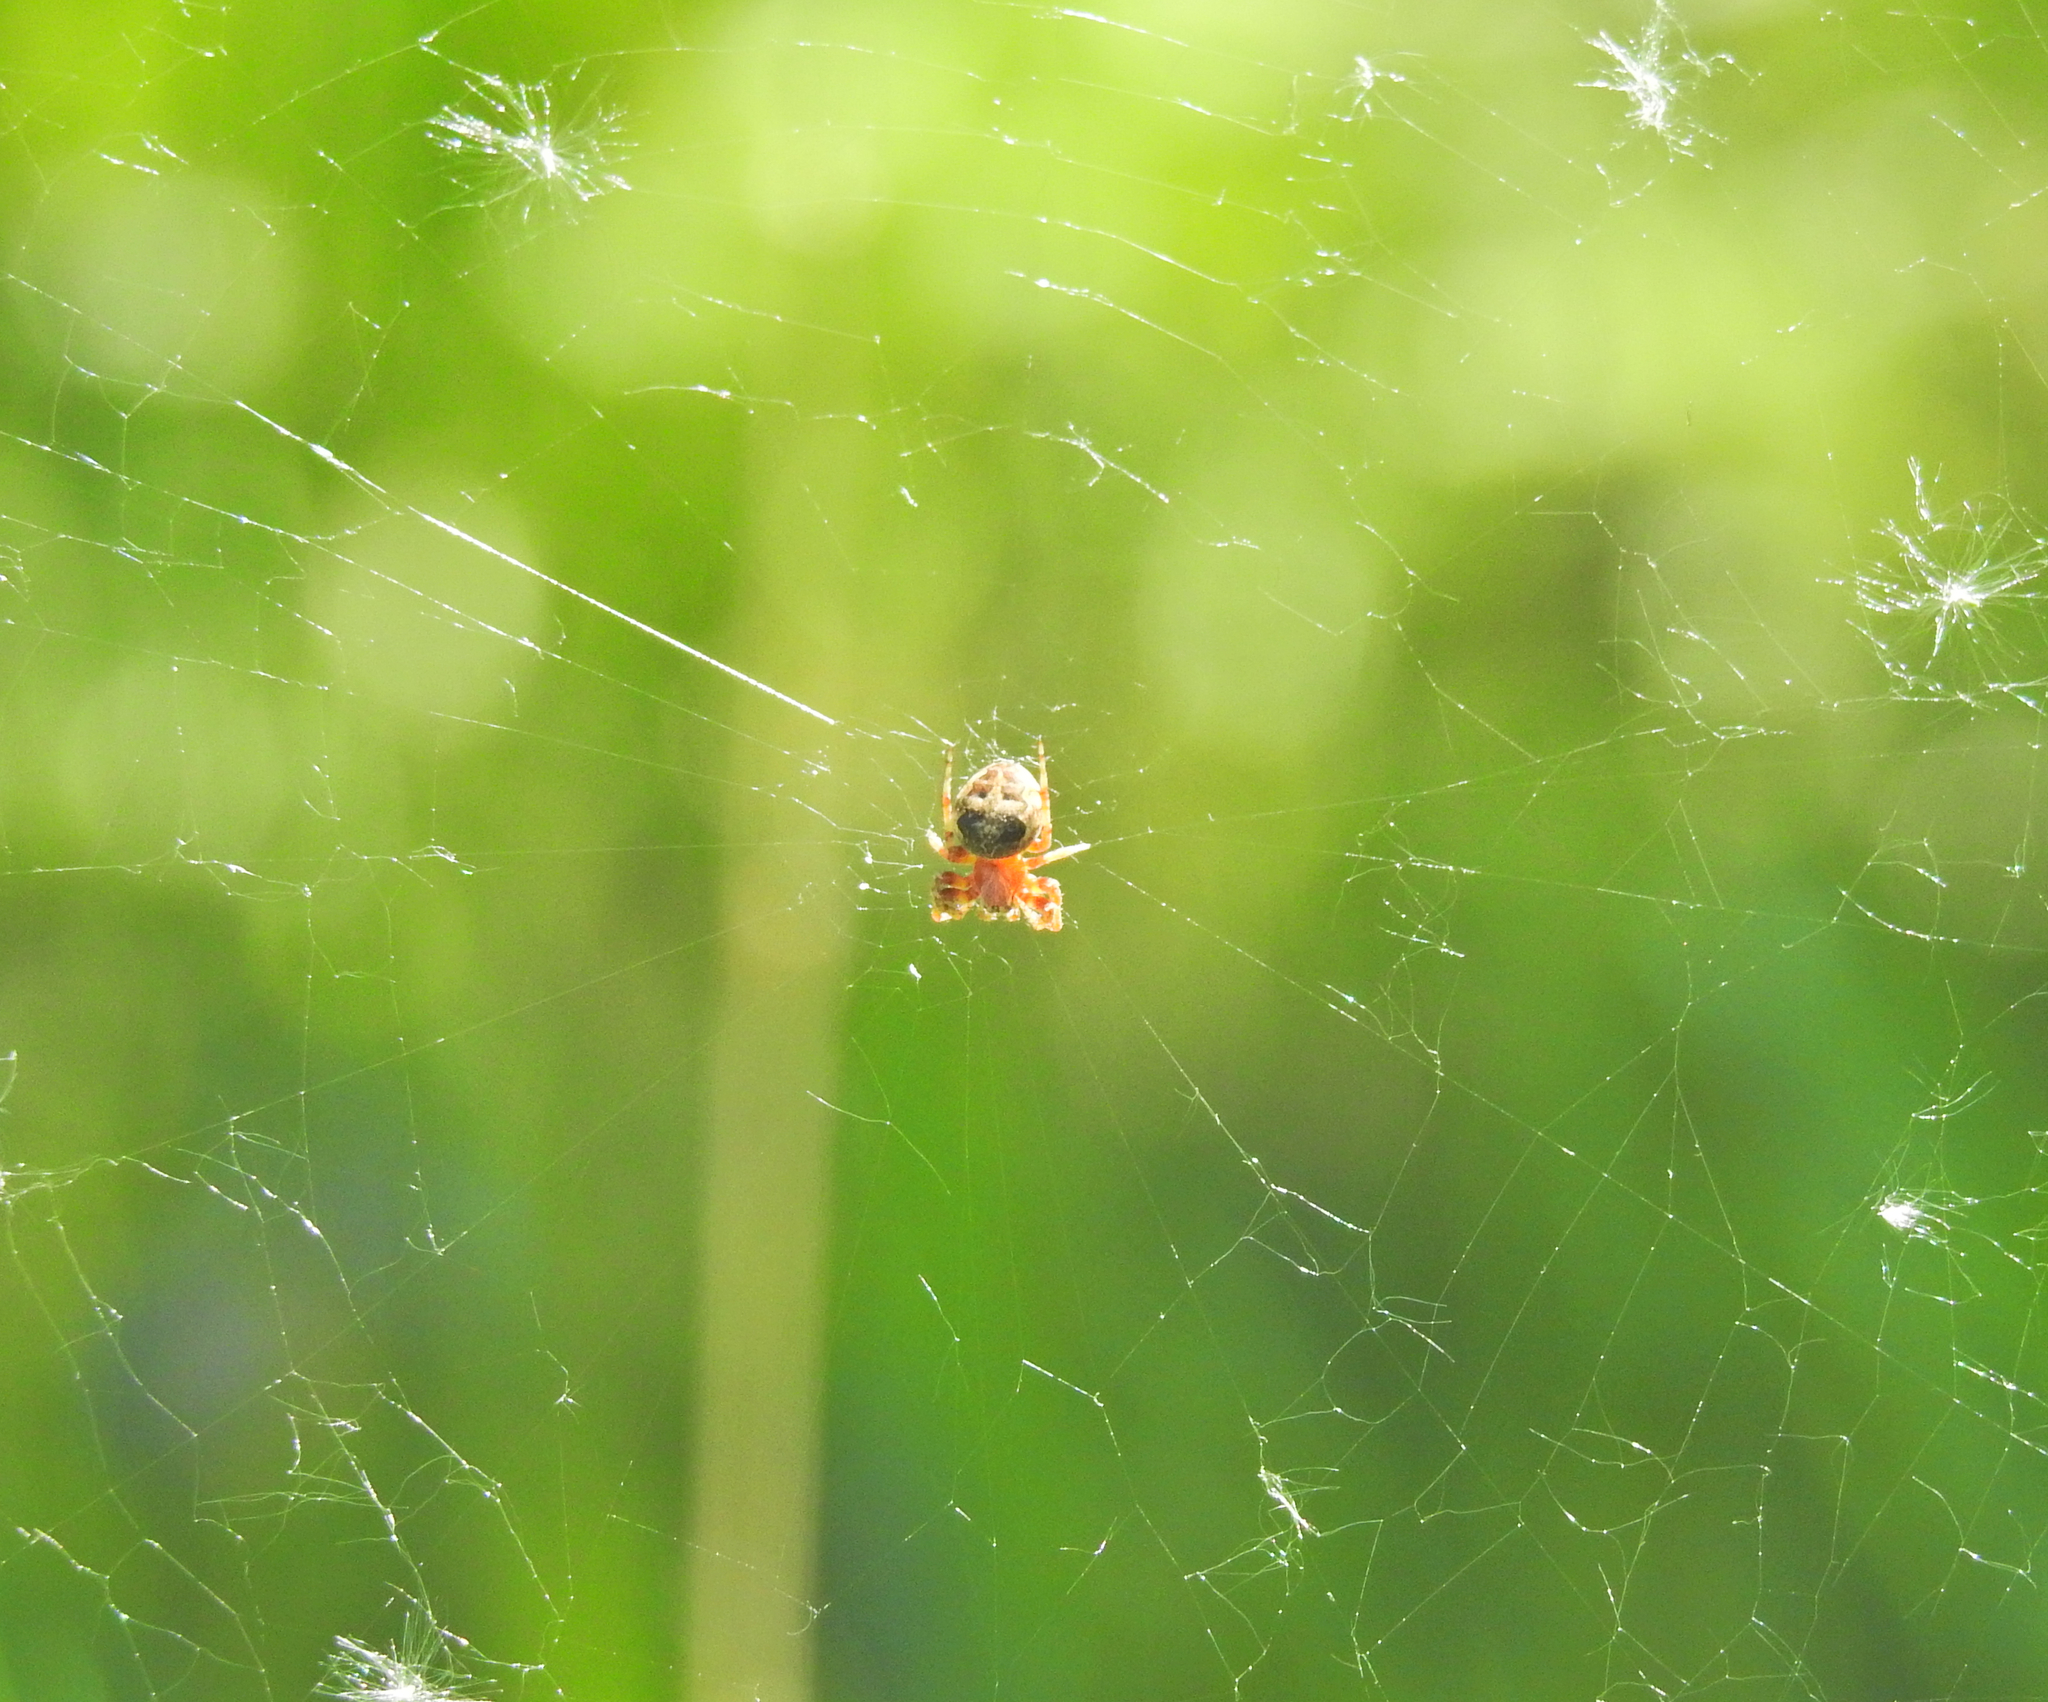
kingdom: Animalia
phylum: Arthropoda
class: Arachnida
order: Araneae
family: Araneidae
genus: Larinioides
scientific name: Larinioides patagiatus
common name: Ornamental orbweaver
